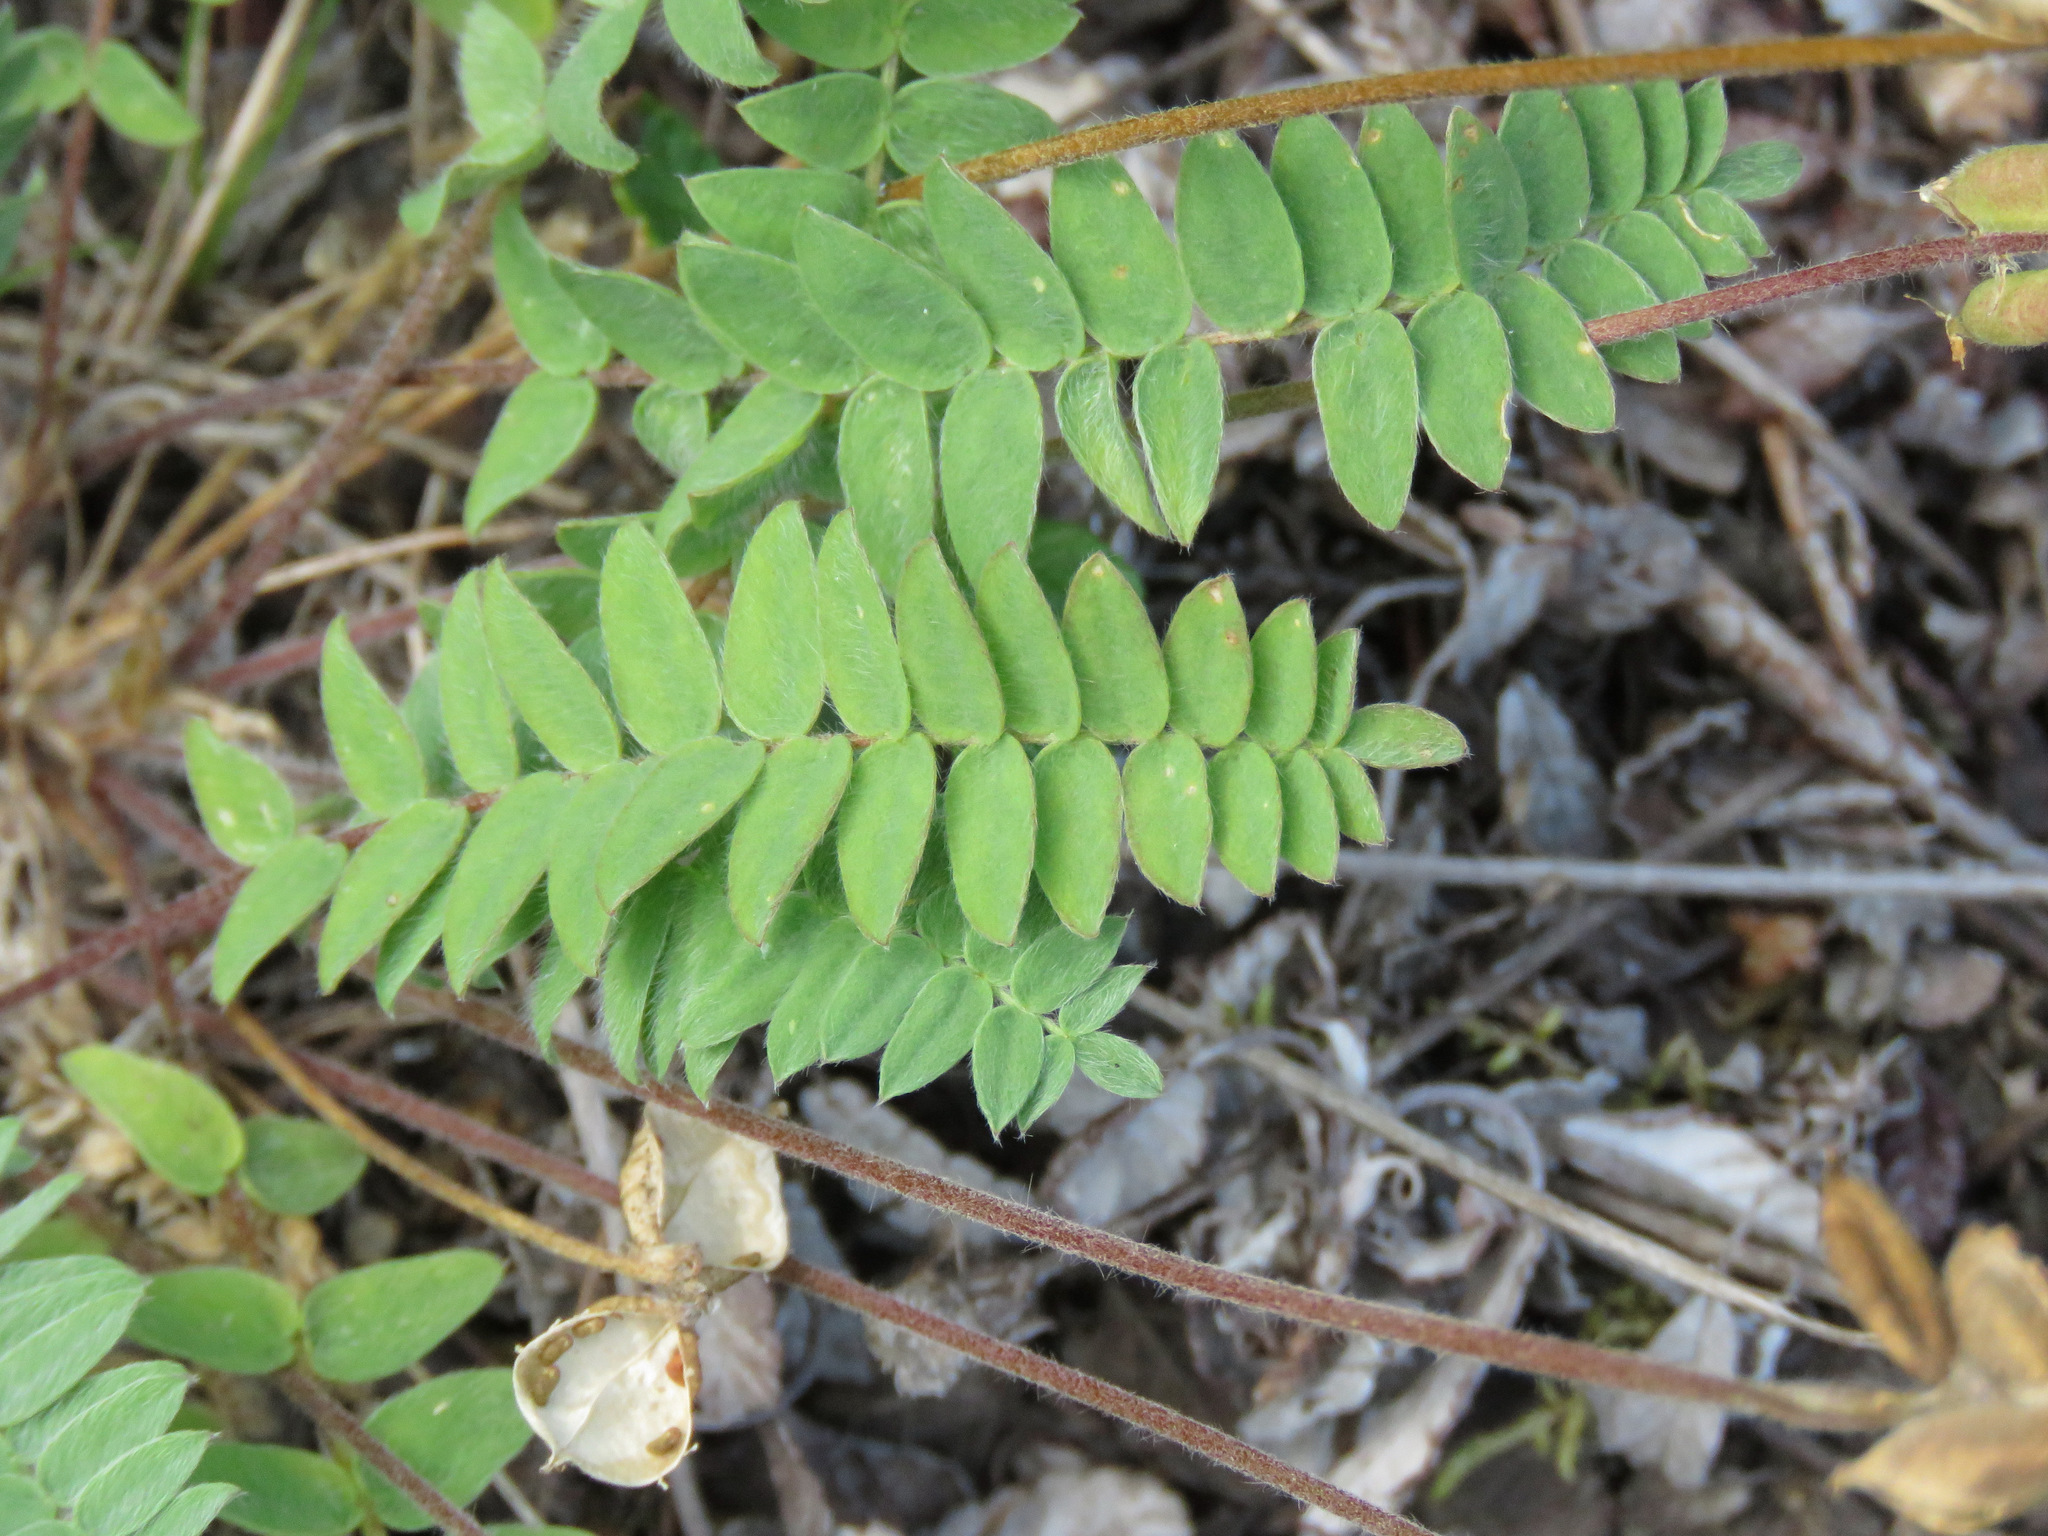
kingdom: Plantae
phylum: Tracheophyta
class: Magnoliopsida
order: Fabales
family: Fabaceae
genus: Oxytropis
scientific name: Oxytropis deflexa
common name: Stemmed oxytrope
